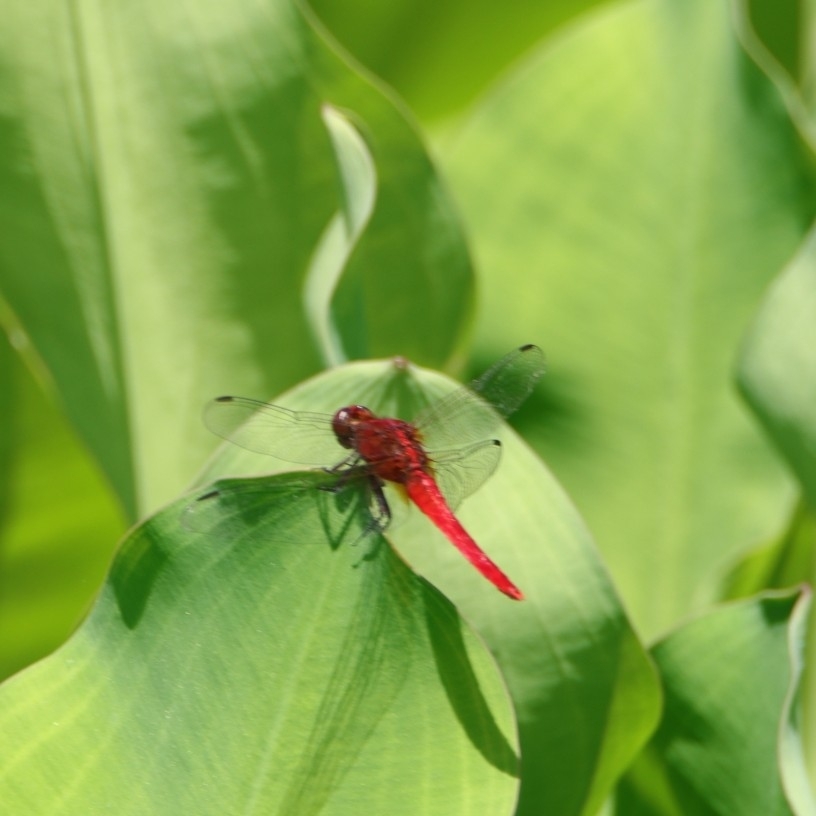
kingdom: Animalia
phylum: Arthropoda
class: Insecta
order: Odonata
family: Libellulidae
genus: Rhodothemis
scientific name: Rhodothemis rufa
